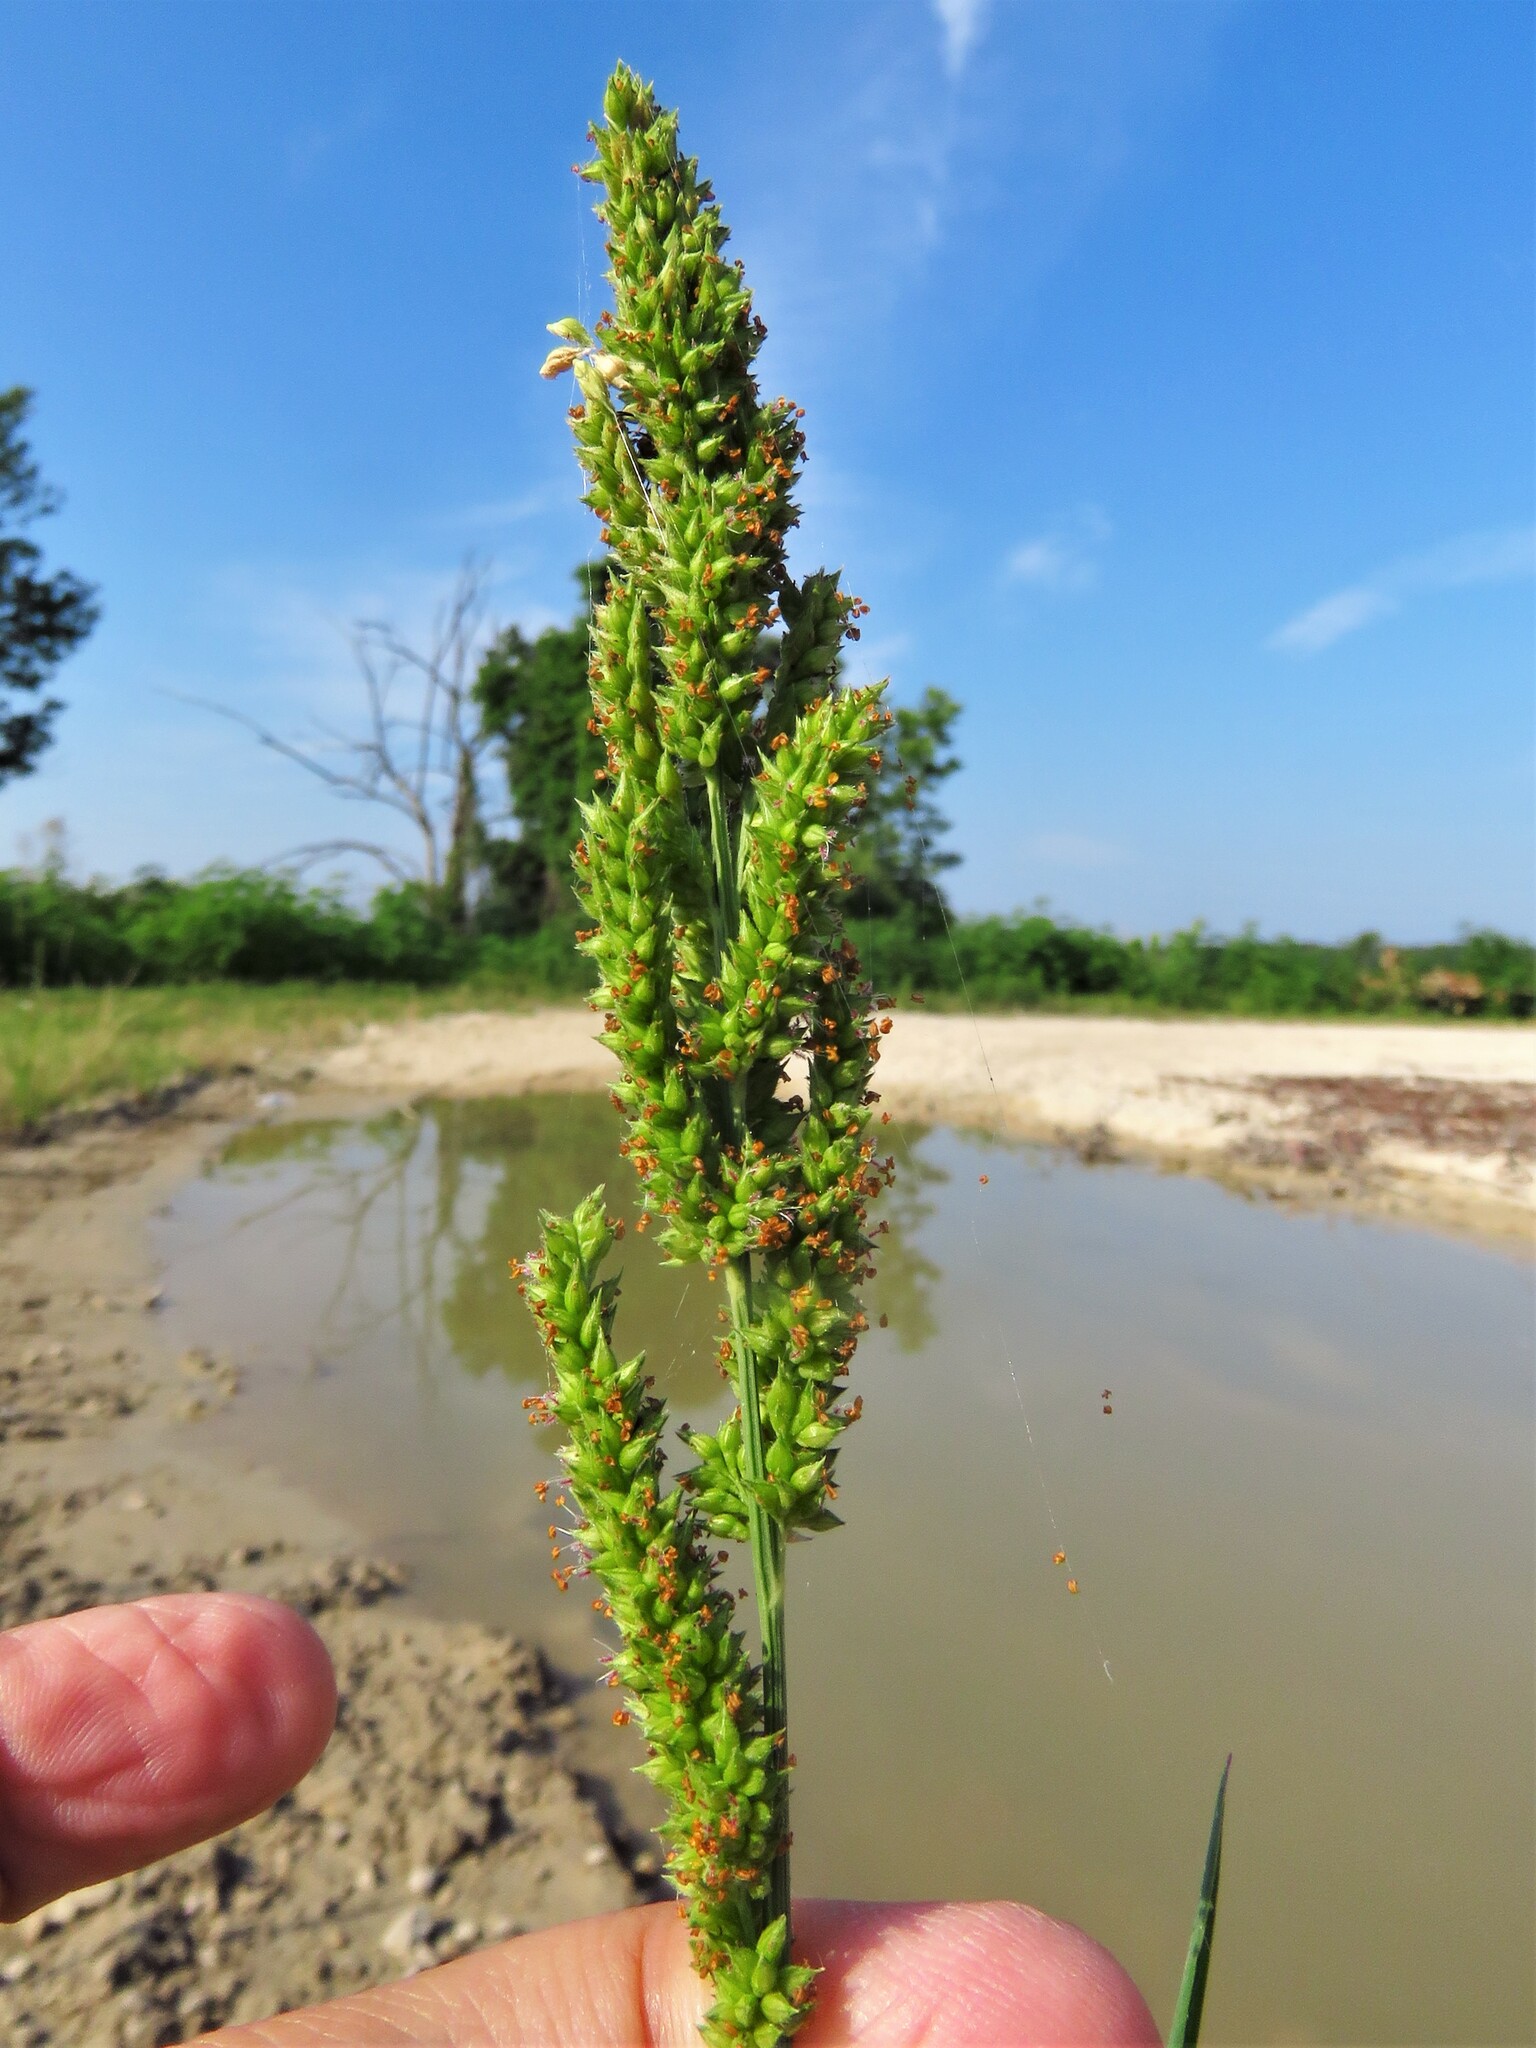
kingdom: Plantae
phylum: Tracheophyta
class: Liliopsida
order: Poales
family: Poaceae
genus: Echinochloa
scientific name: Echinochloa crus-galli
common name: Cockspur
